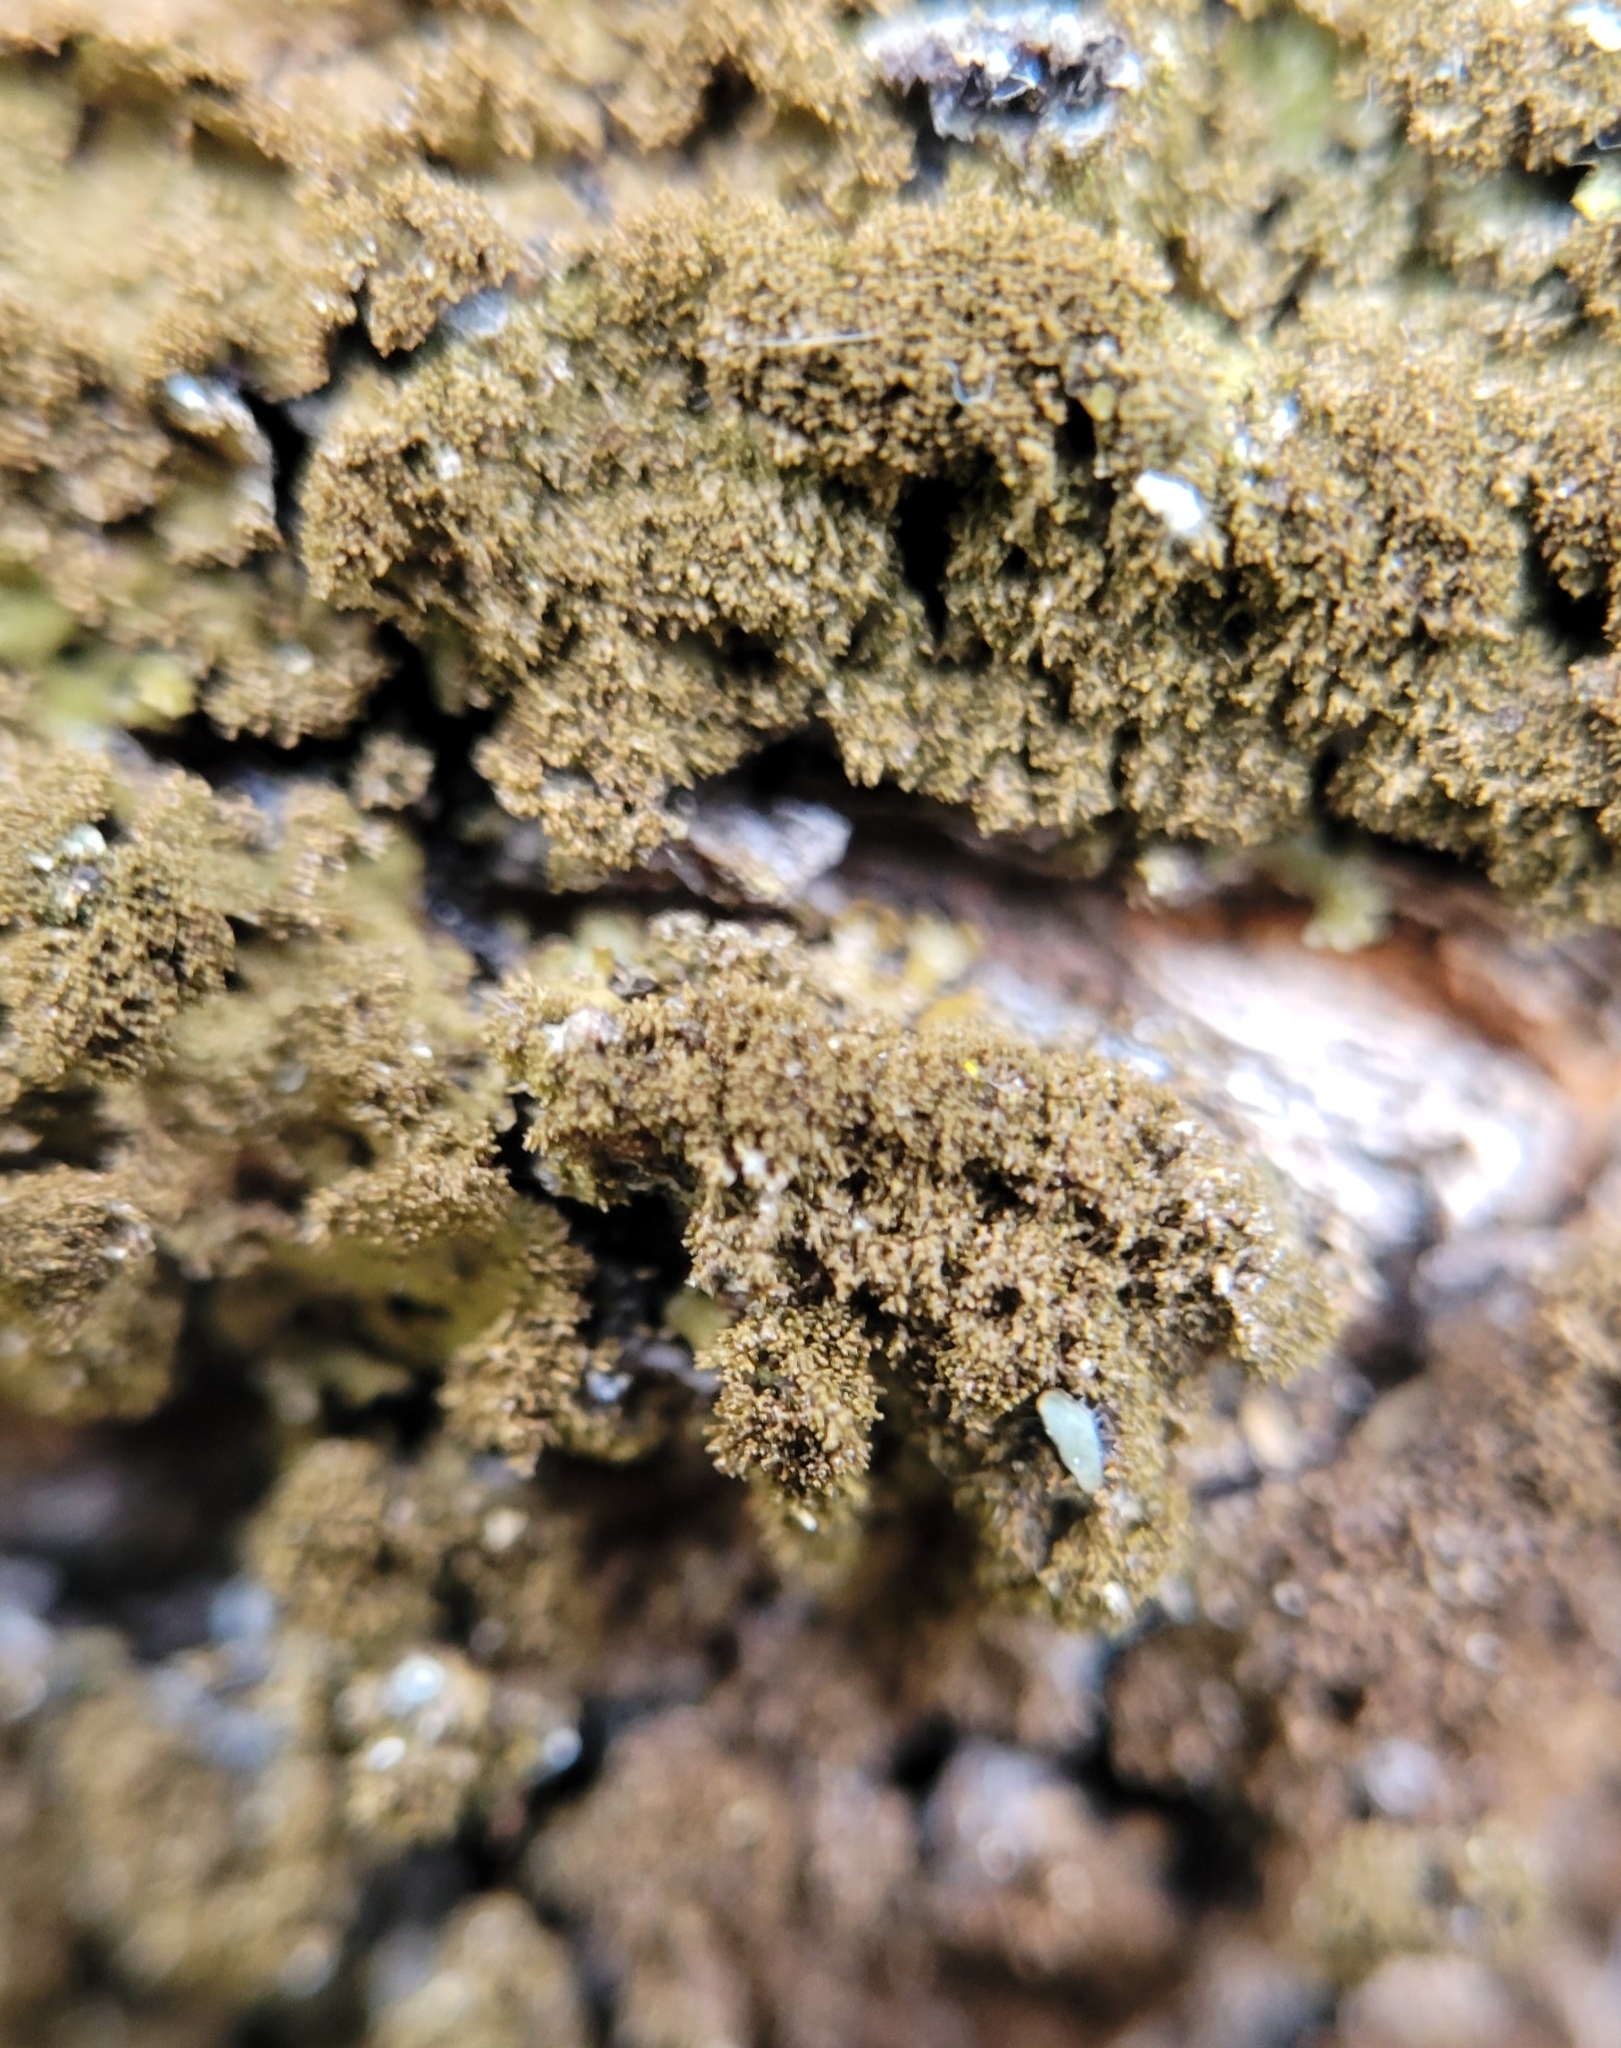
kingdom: Fungi
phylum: Ascomycota
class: Lecanoromycetes
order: Lecanorales
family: Parmeliaceae
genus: Melanelixia
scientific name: Melanelixia glabratula
